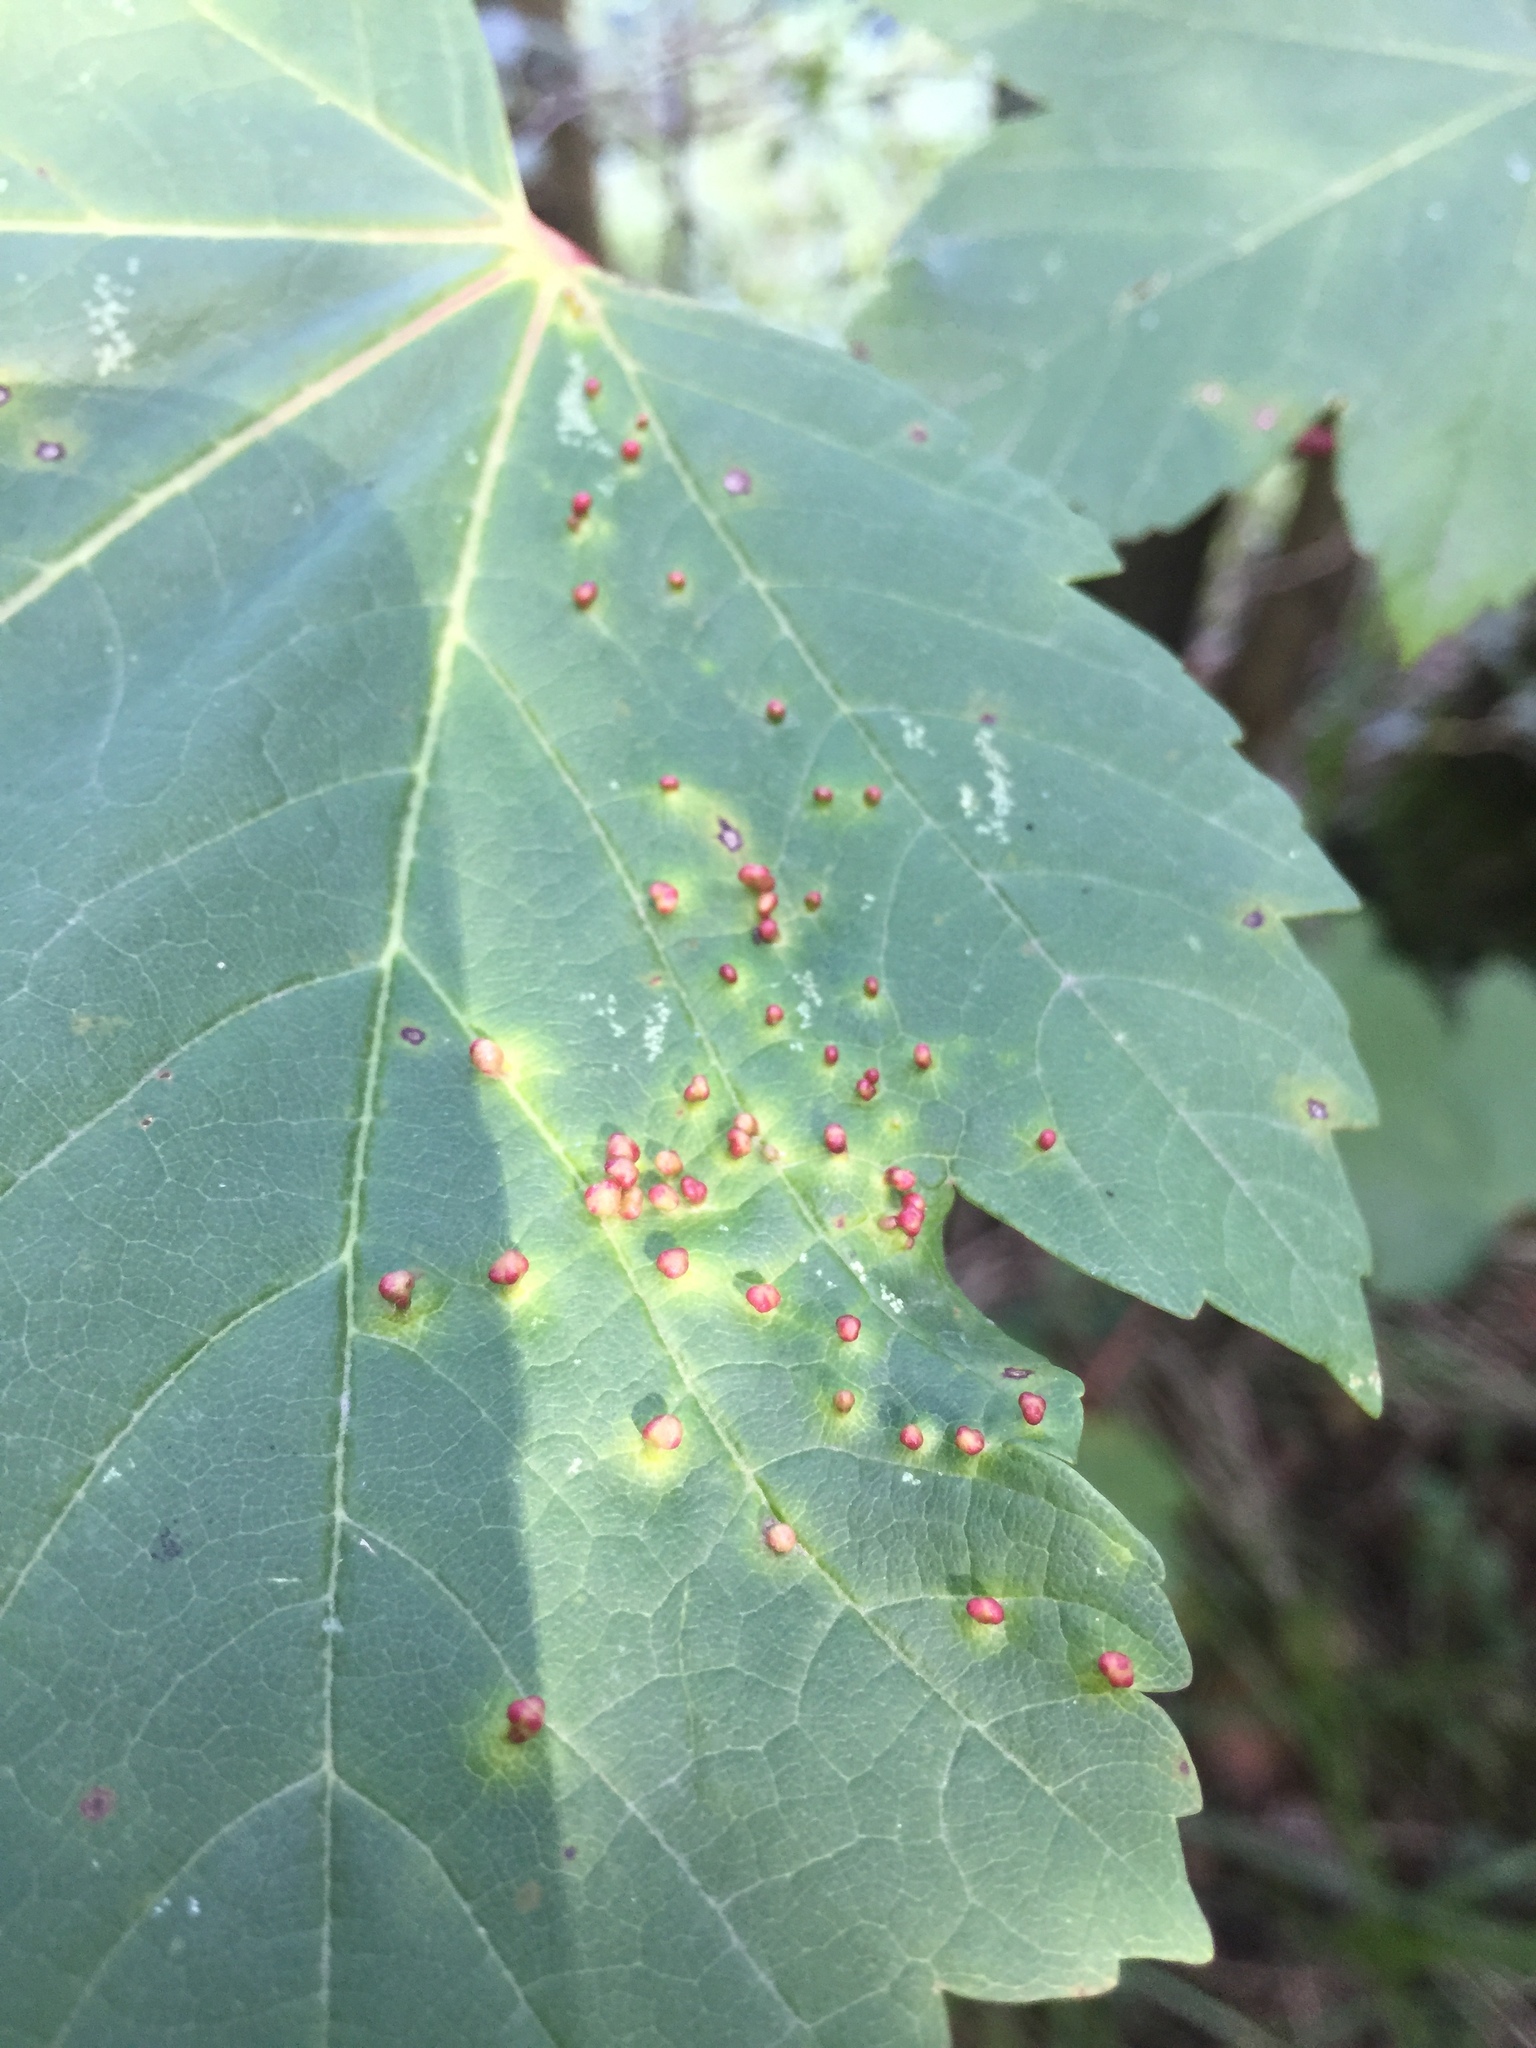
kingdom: Animalia
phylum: Arthropoda
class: Arachnida
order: Trombidiformes
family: Eriophyidae
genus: Aceria
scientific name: Aceria cephaloneus
